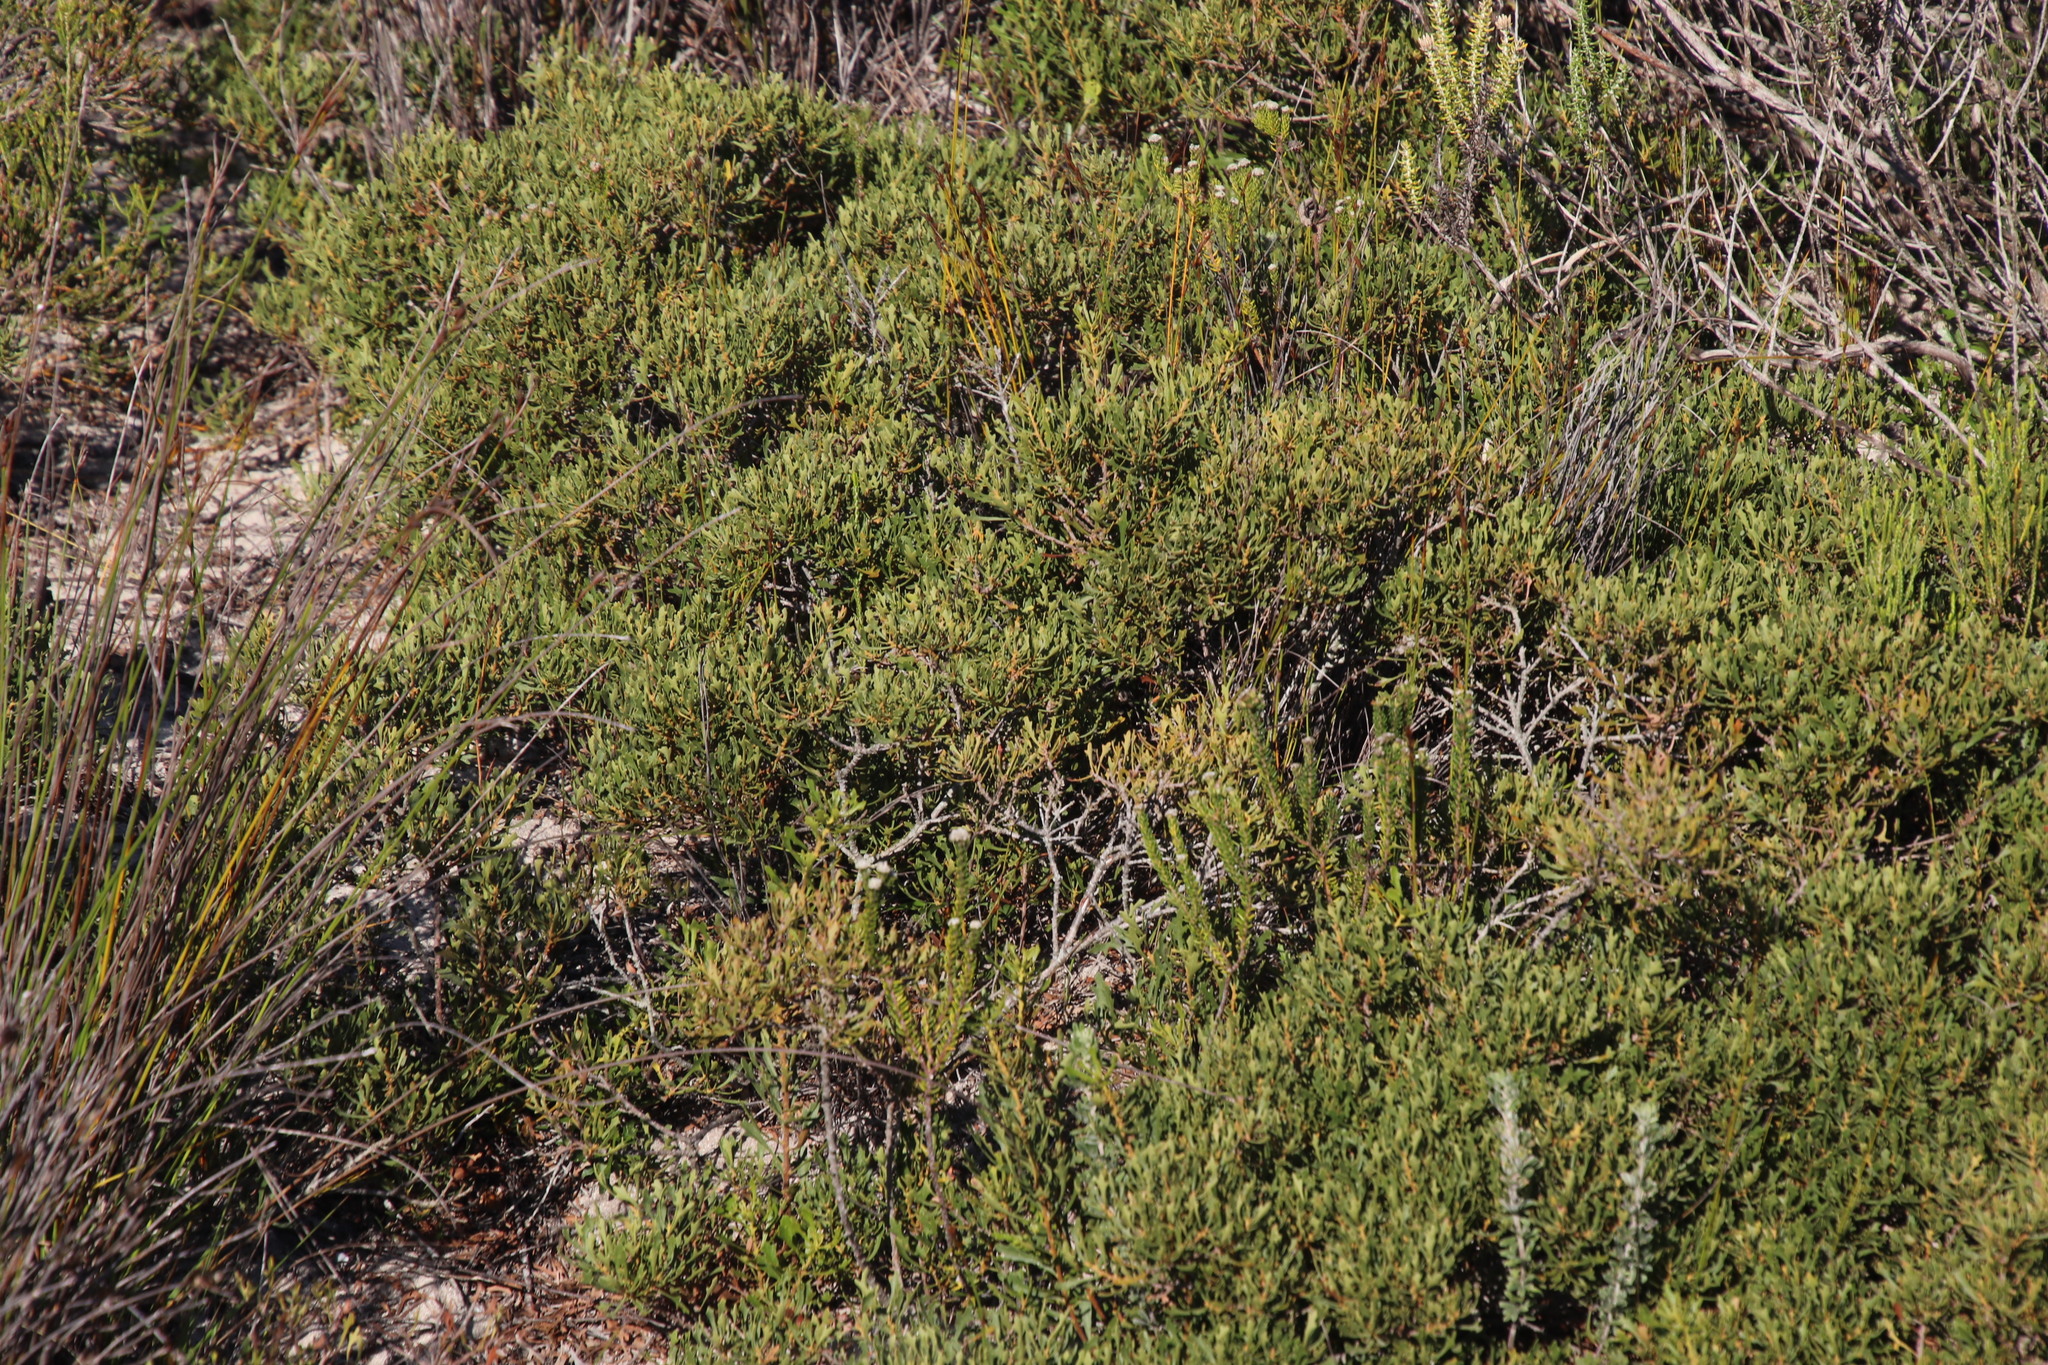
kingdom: Plantae
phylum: Tracheophyta
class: Magnoliopsida
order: Fagales
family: Myricaceae
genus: Morella
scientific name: Morella quercifolia
